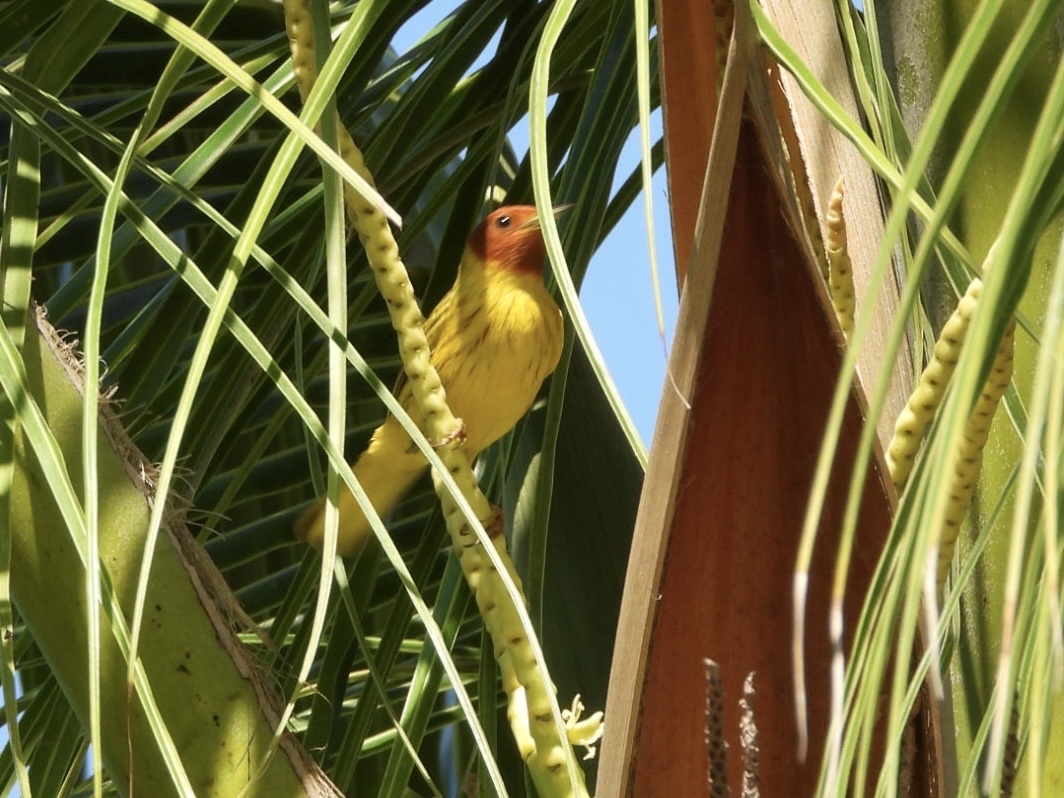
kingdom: Animalia
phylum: Chordata
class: Aves
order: Passeriformes
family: Parulidae
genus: Setophaga
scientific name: Setophaga petechia
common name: Yellow warbler
